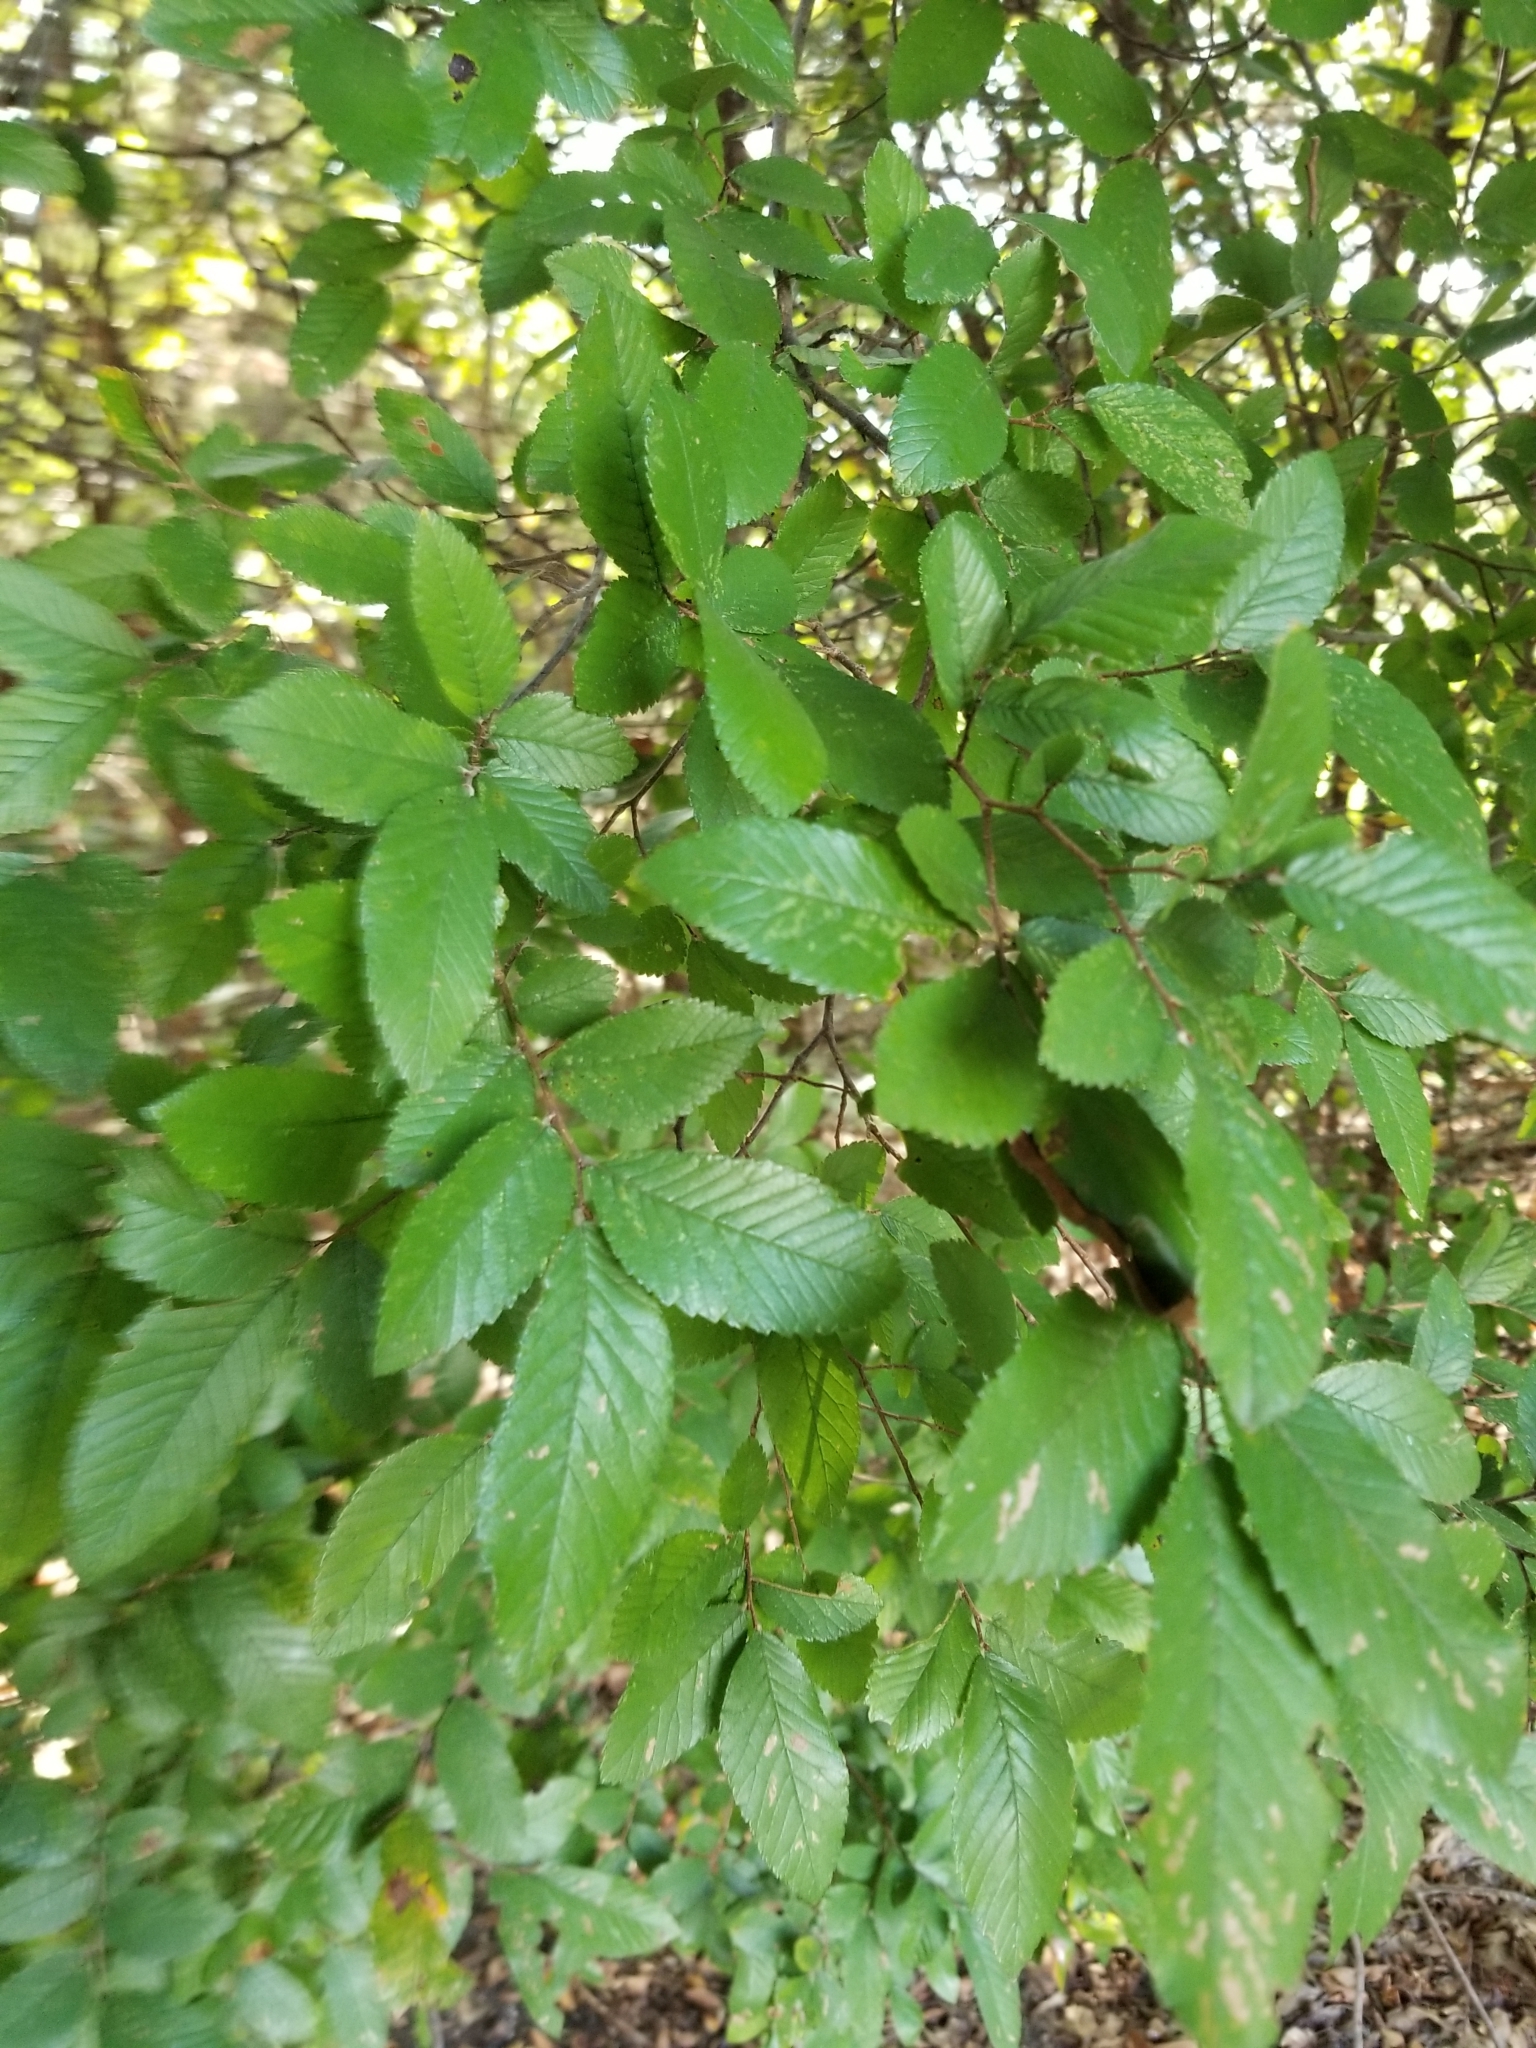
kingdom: Plantae
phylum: Tracheophyta
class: Magnoliopsida
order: Rosales
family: Ulmaceae
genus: Ulmus
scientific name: Ulmus crassifolia
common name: Basket elm
